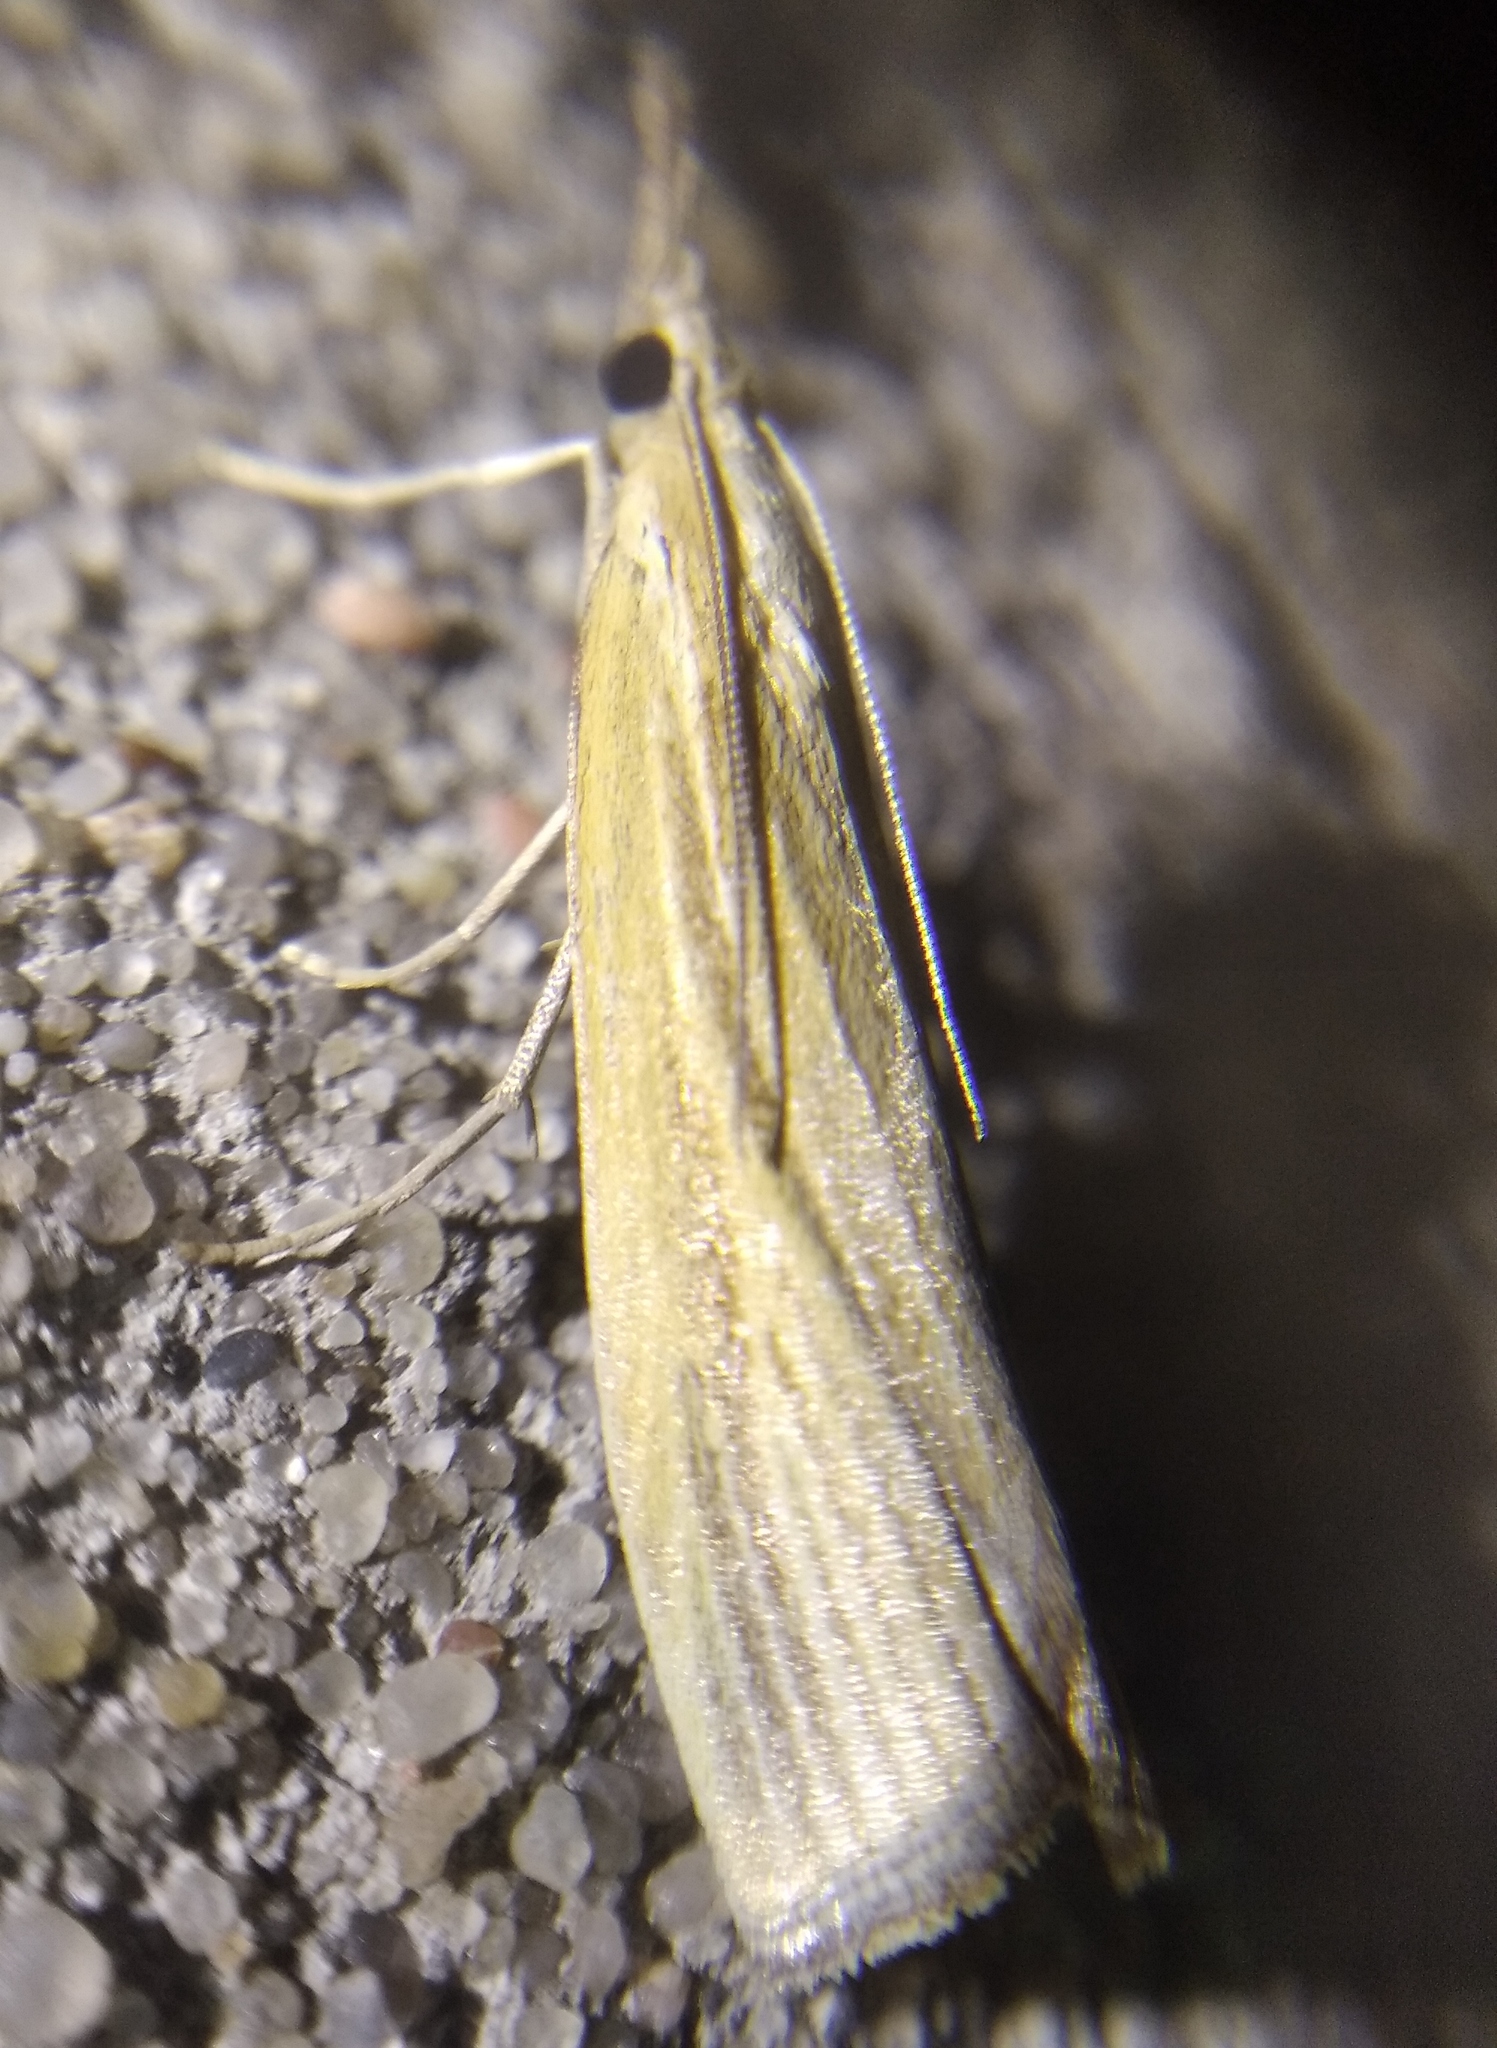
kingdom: Animalia
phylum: Arthropoda
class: Insecta
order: Lepidoptera
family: Crambidae
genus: Agriphila
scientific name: Agriphila tristellus
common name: Common grass-veneer
